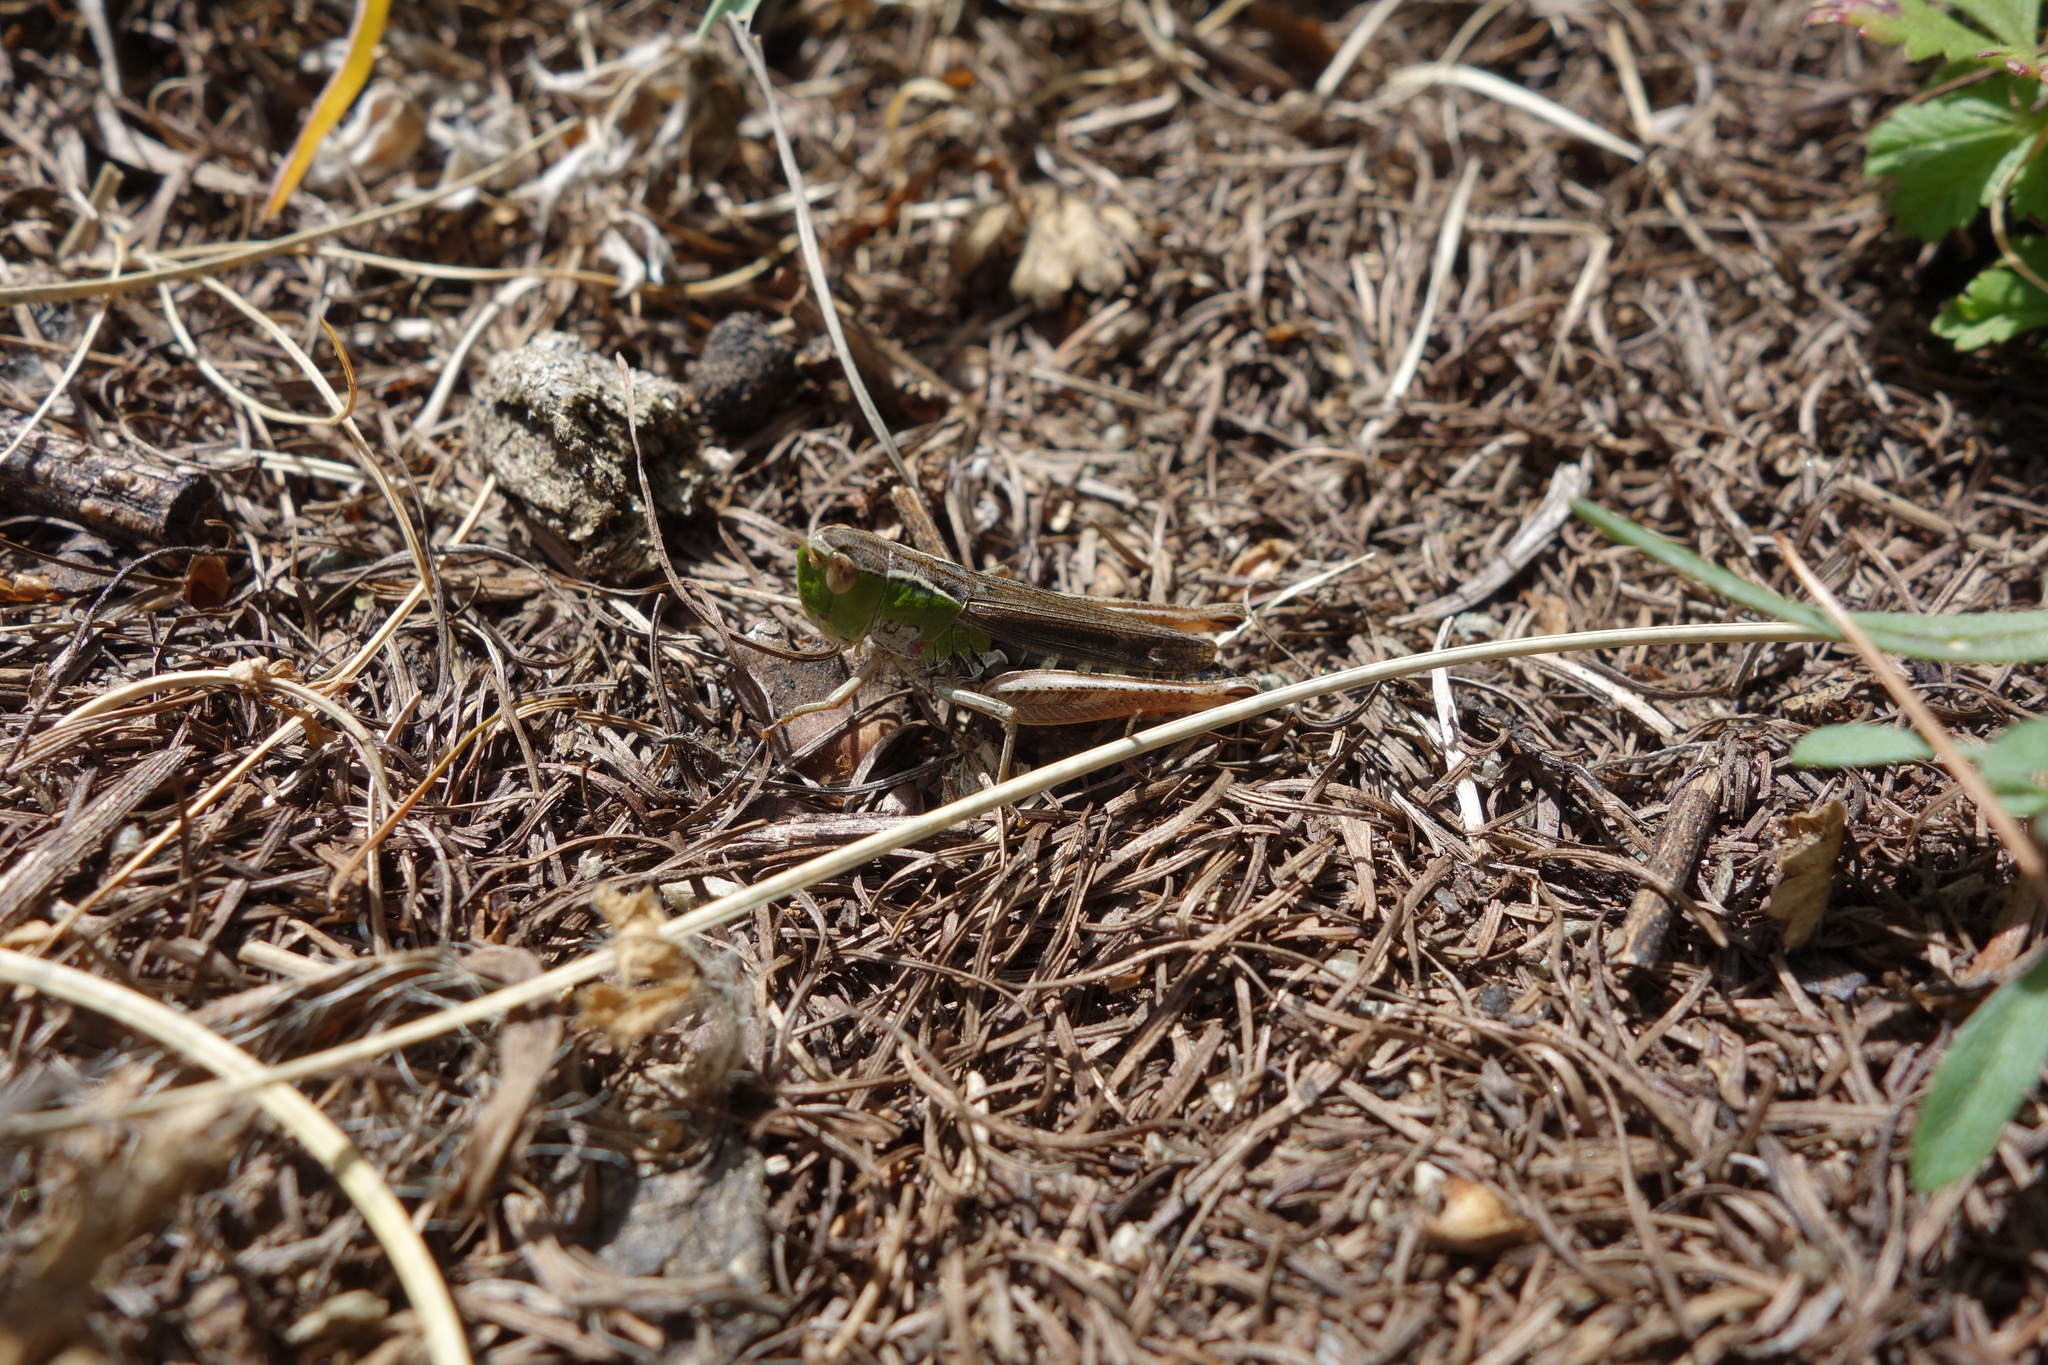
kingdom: Animalia
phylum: Arthropoda
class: Insecta
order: Orthoptera
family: Acrididae
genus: Stenobothrus
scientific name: Stenobothrus nigromaculatus
